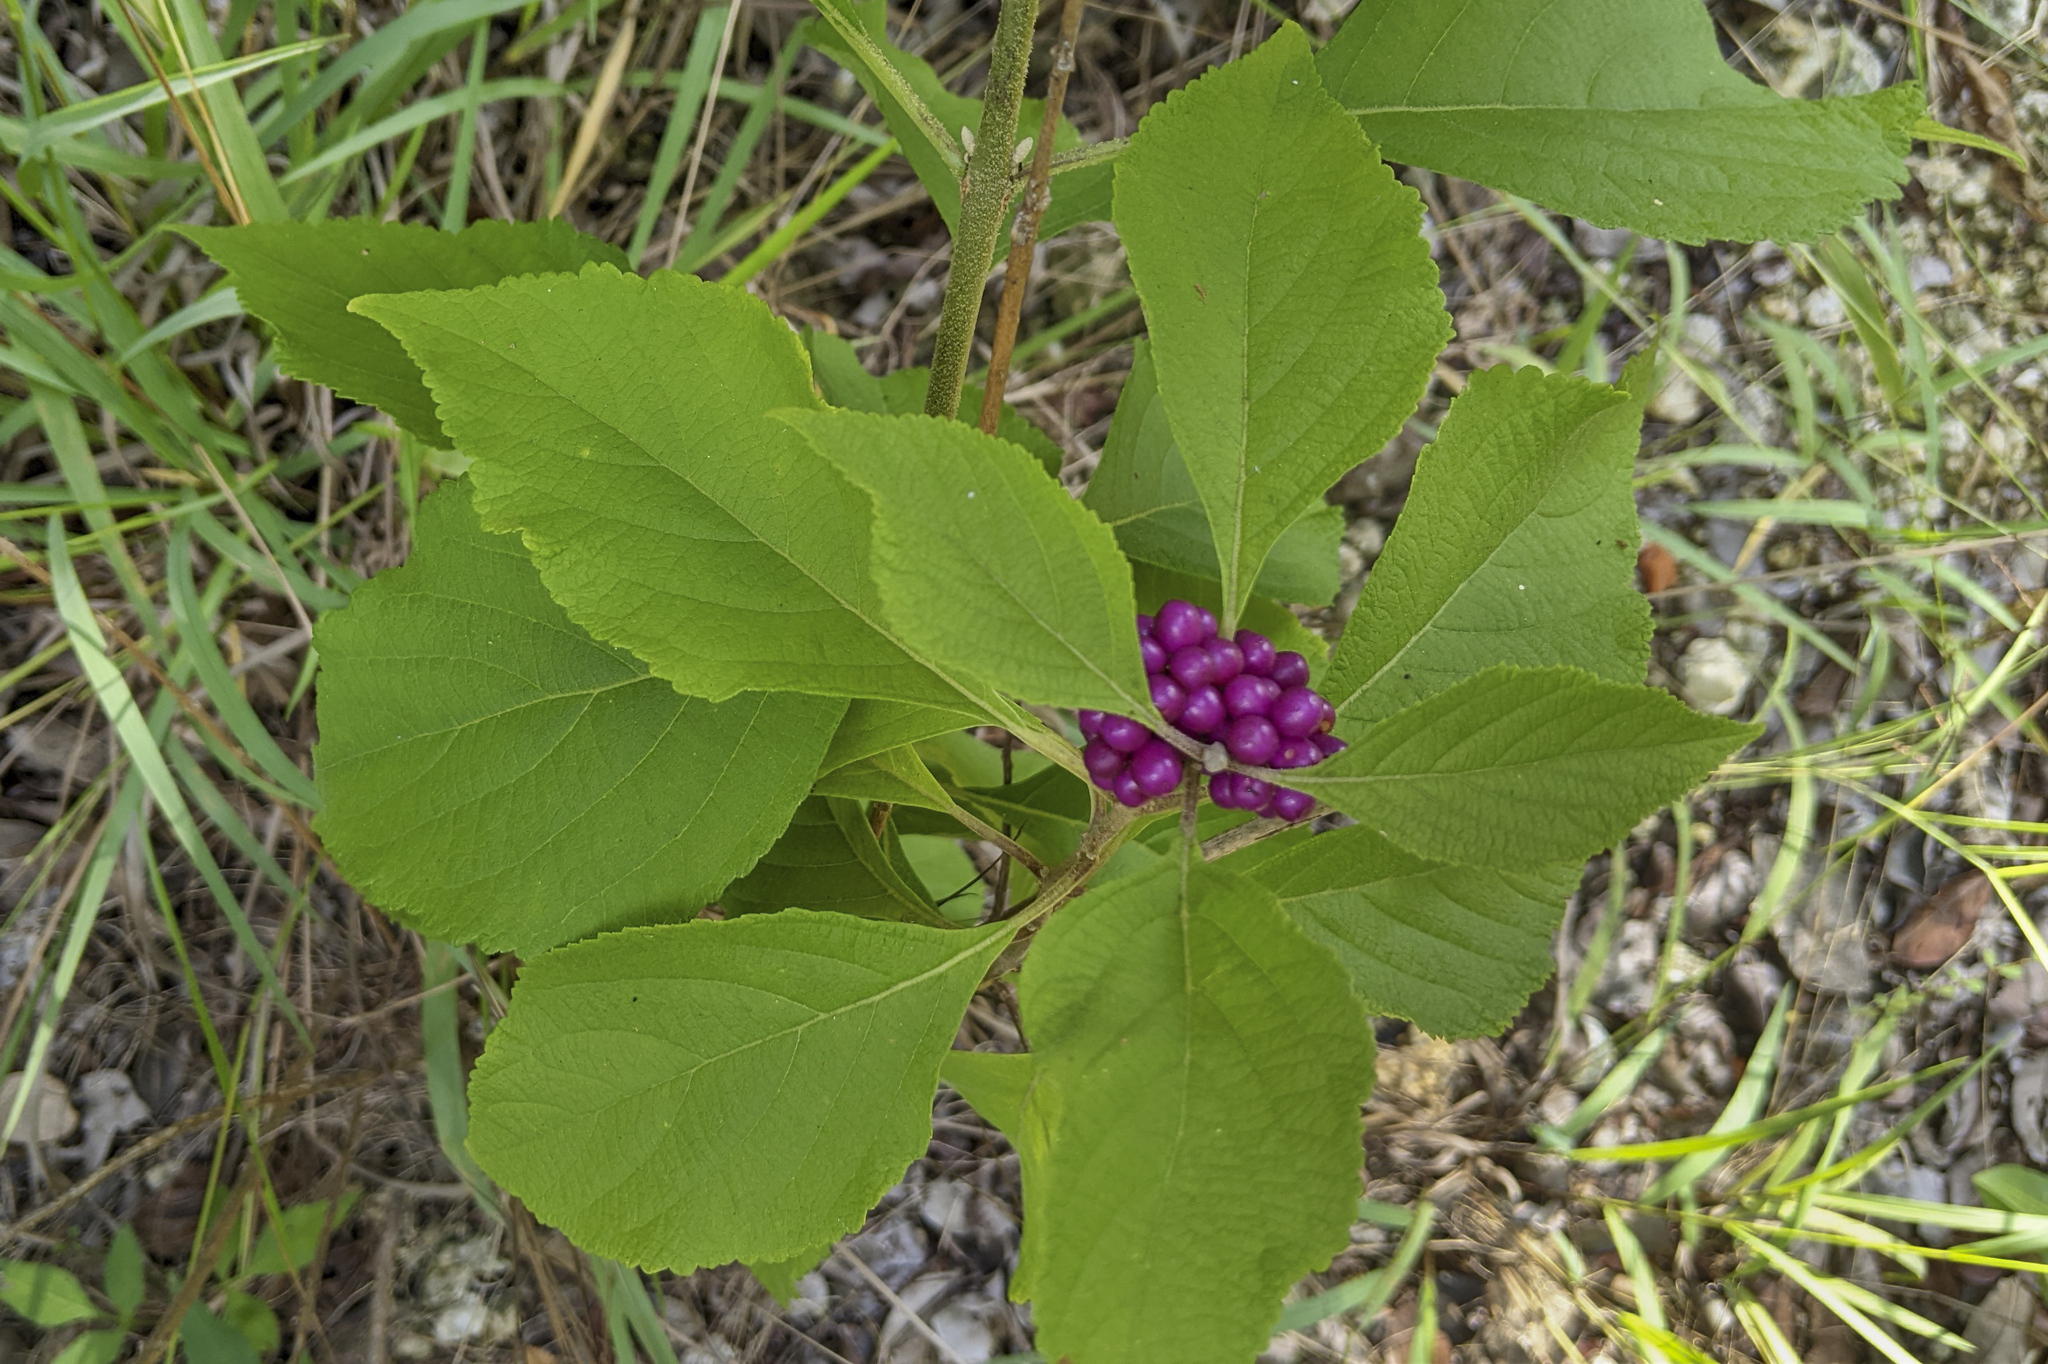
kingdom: Plantae
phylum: Tracheophyta
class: Magnoliopsida
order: Lamiales
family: Lamiaceae
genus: Callicarpa
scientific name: Callicarpa americana
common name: American beautyberry
